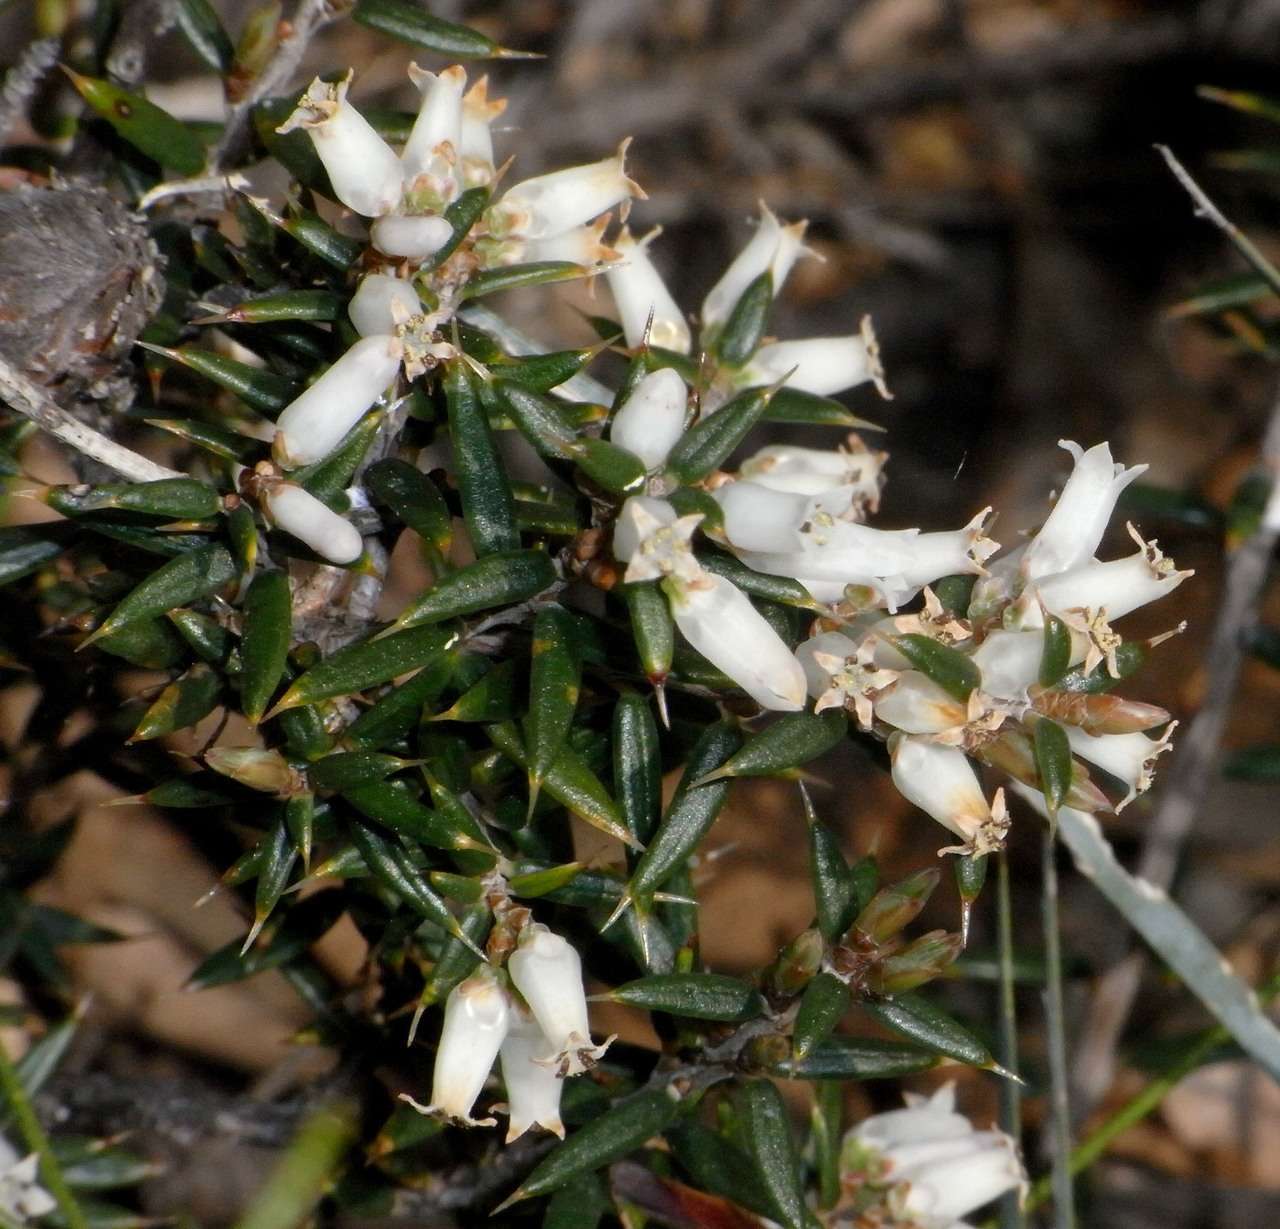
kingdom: Plantae
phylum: Tracheophyta
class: Magnoliopsida
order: Ericales
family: Ericaceae
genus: Lissanthe
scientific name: Lissanthe strigosa
